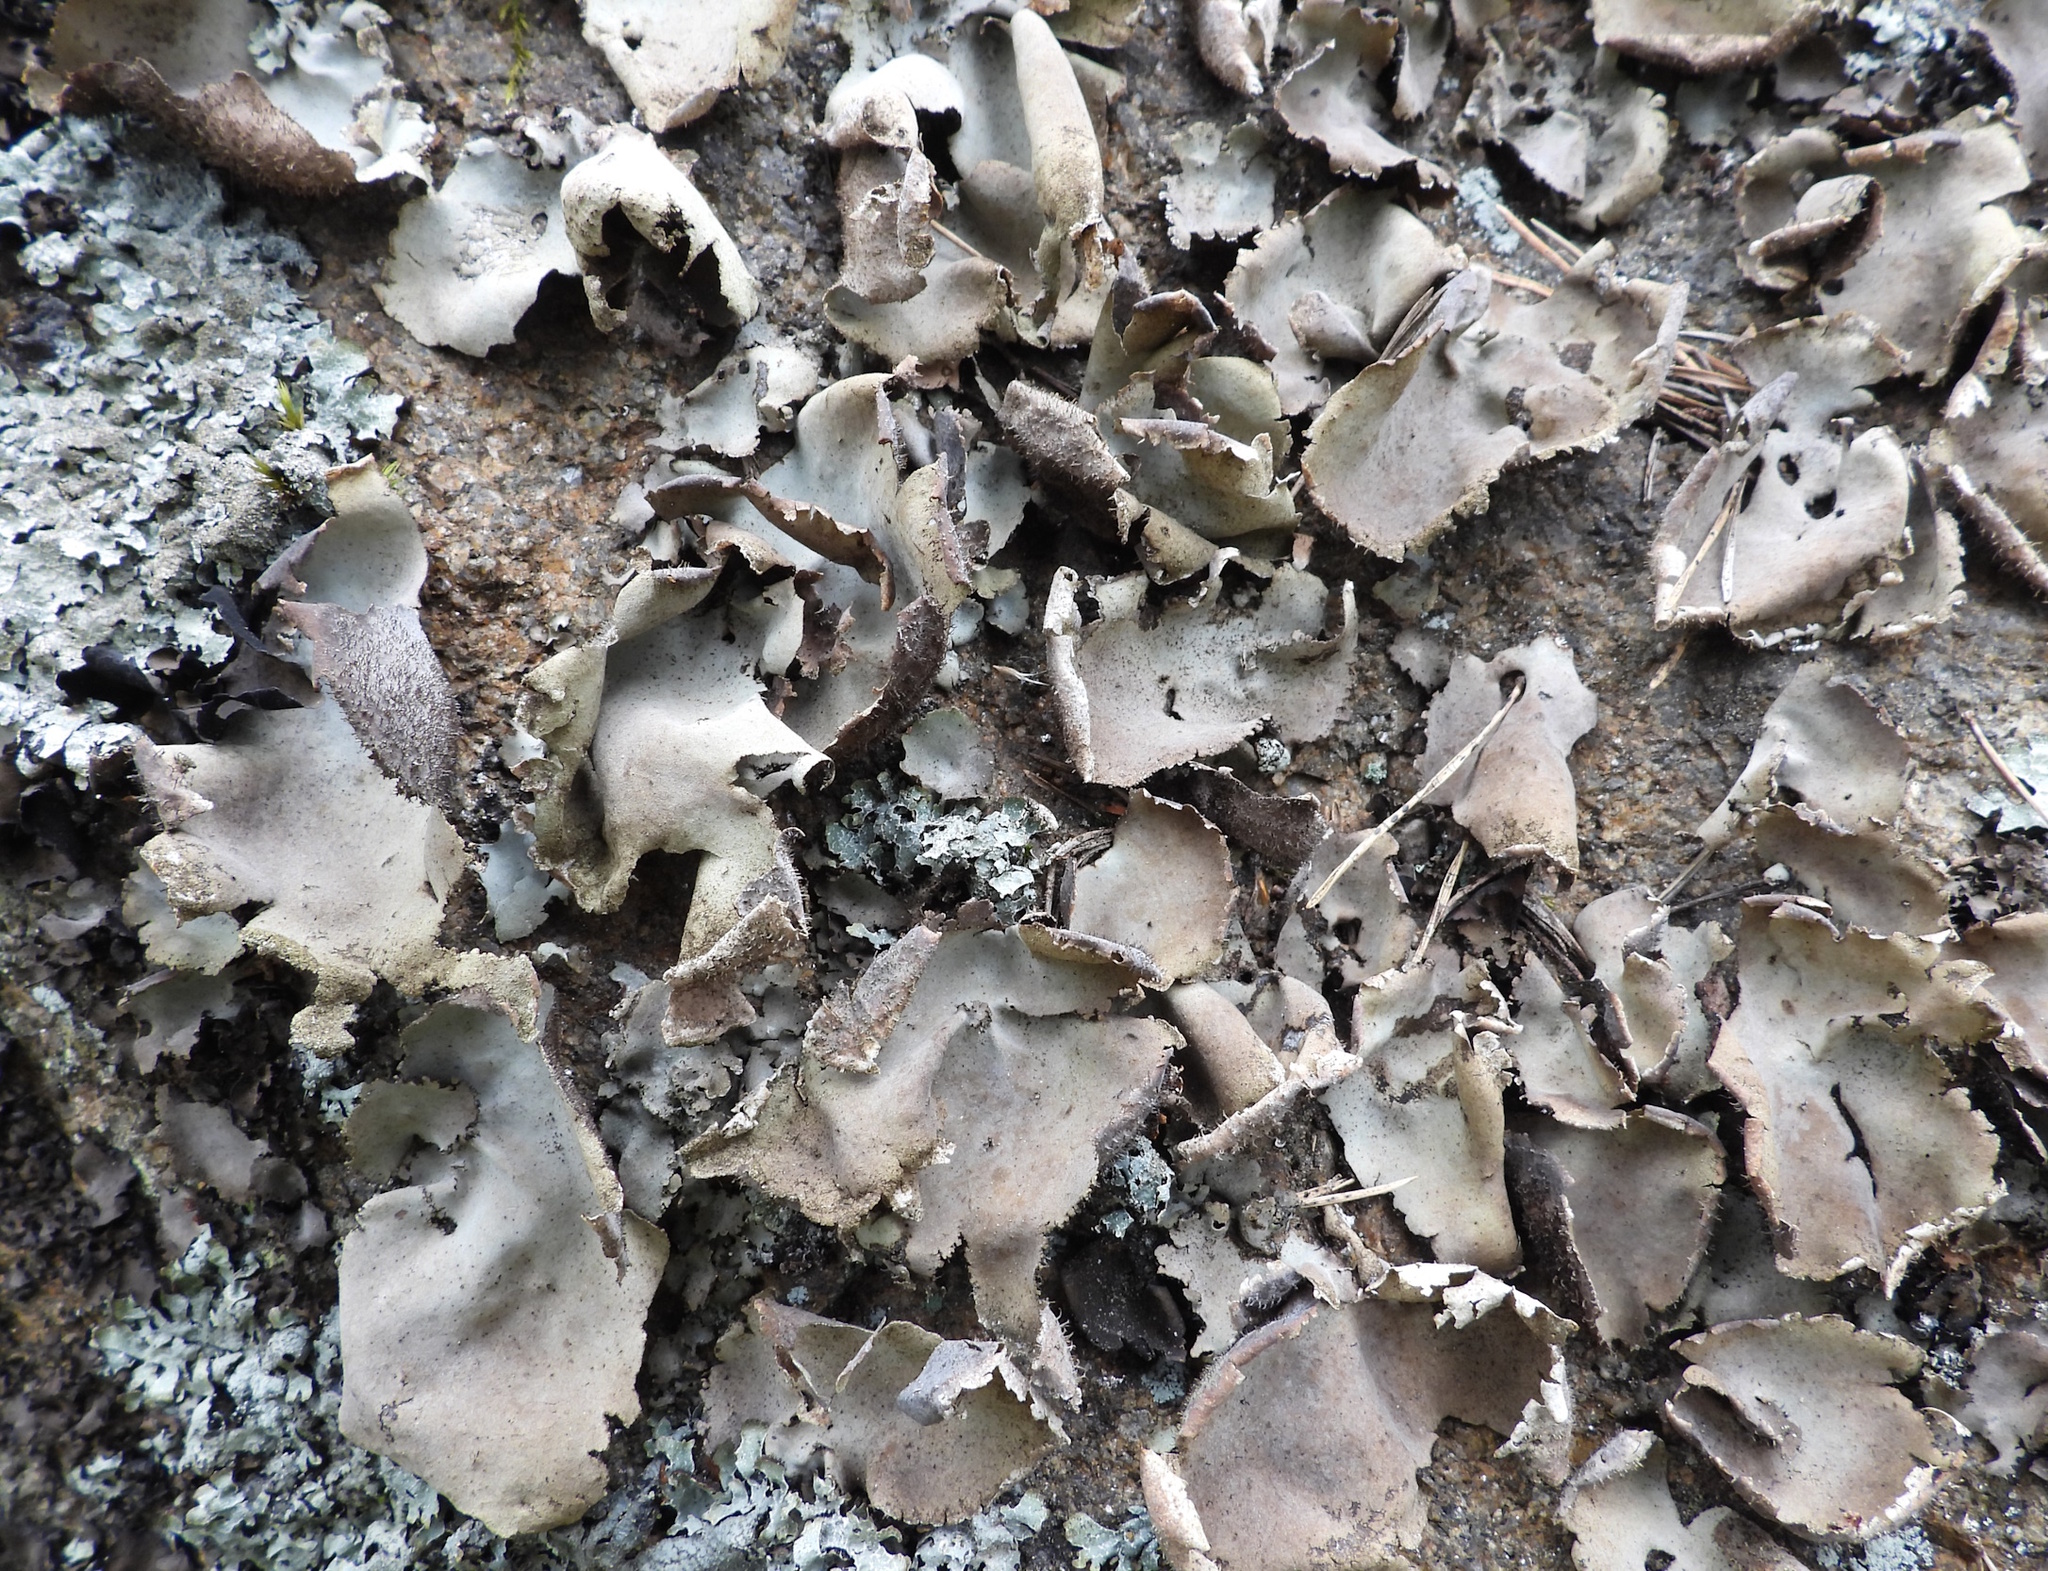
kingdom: Fungi
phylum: Ascomycota
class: Lecanoromycetes
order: Umbilicariales
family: Umbilicariaceae
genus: Umbilicaria
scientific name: Umbilicaria hirsuta
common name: Granulating rocktripe lichen
